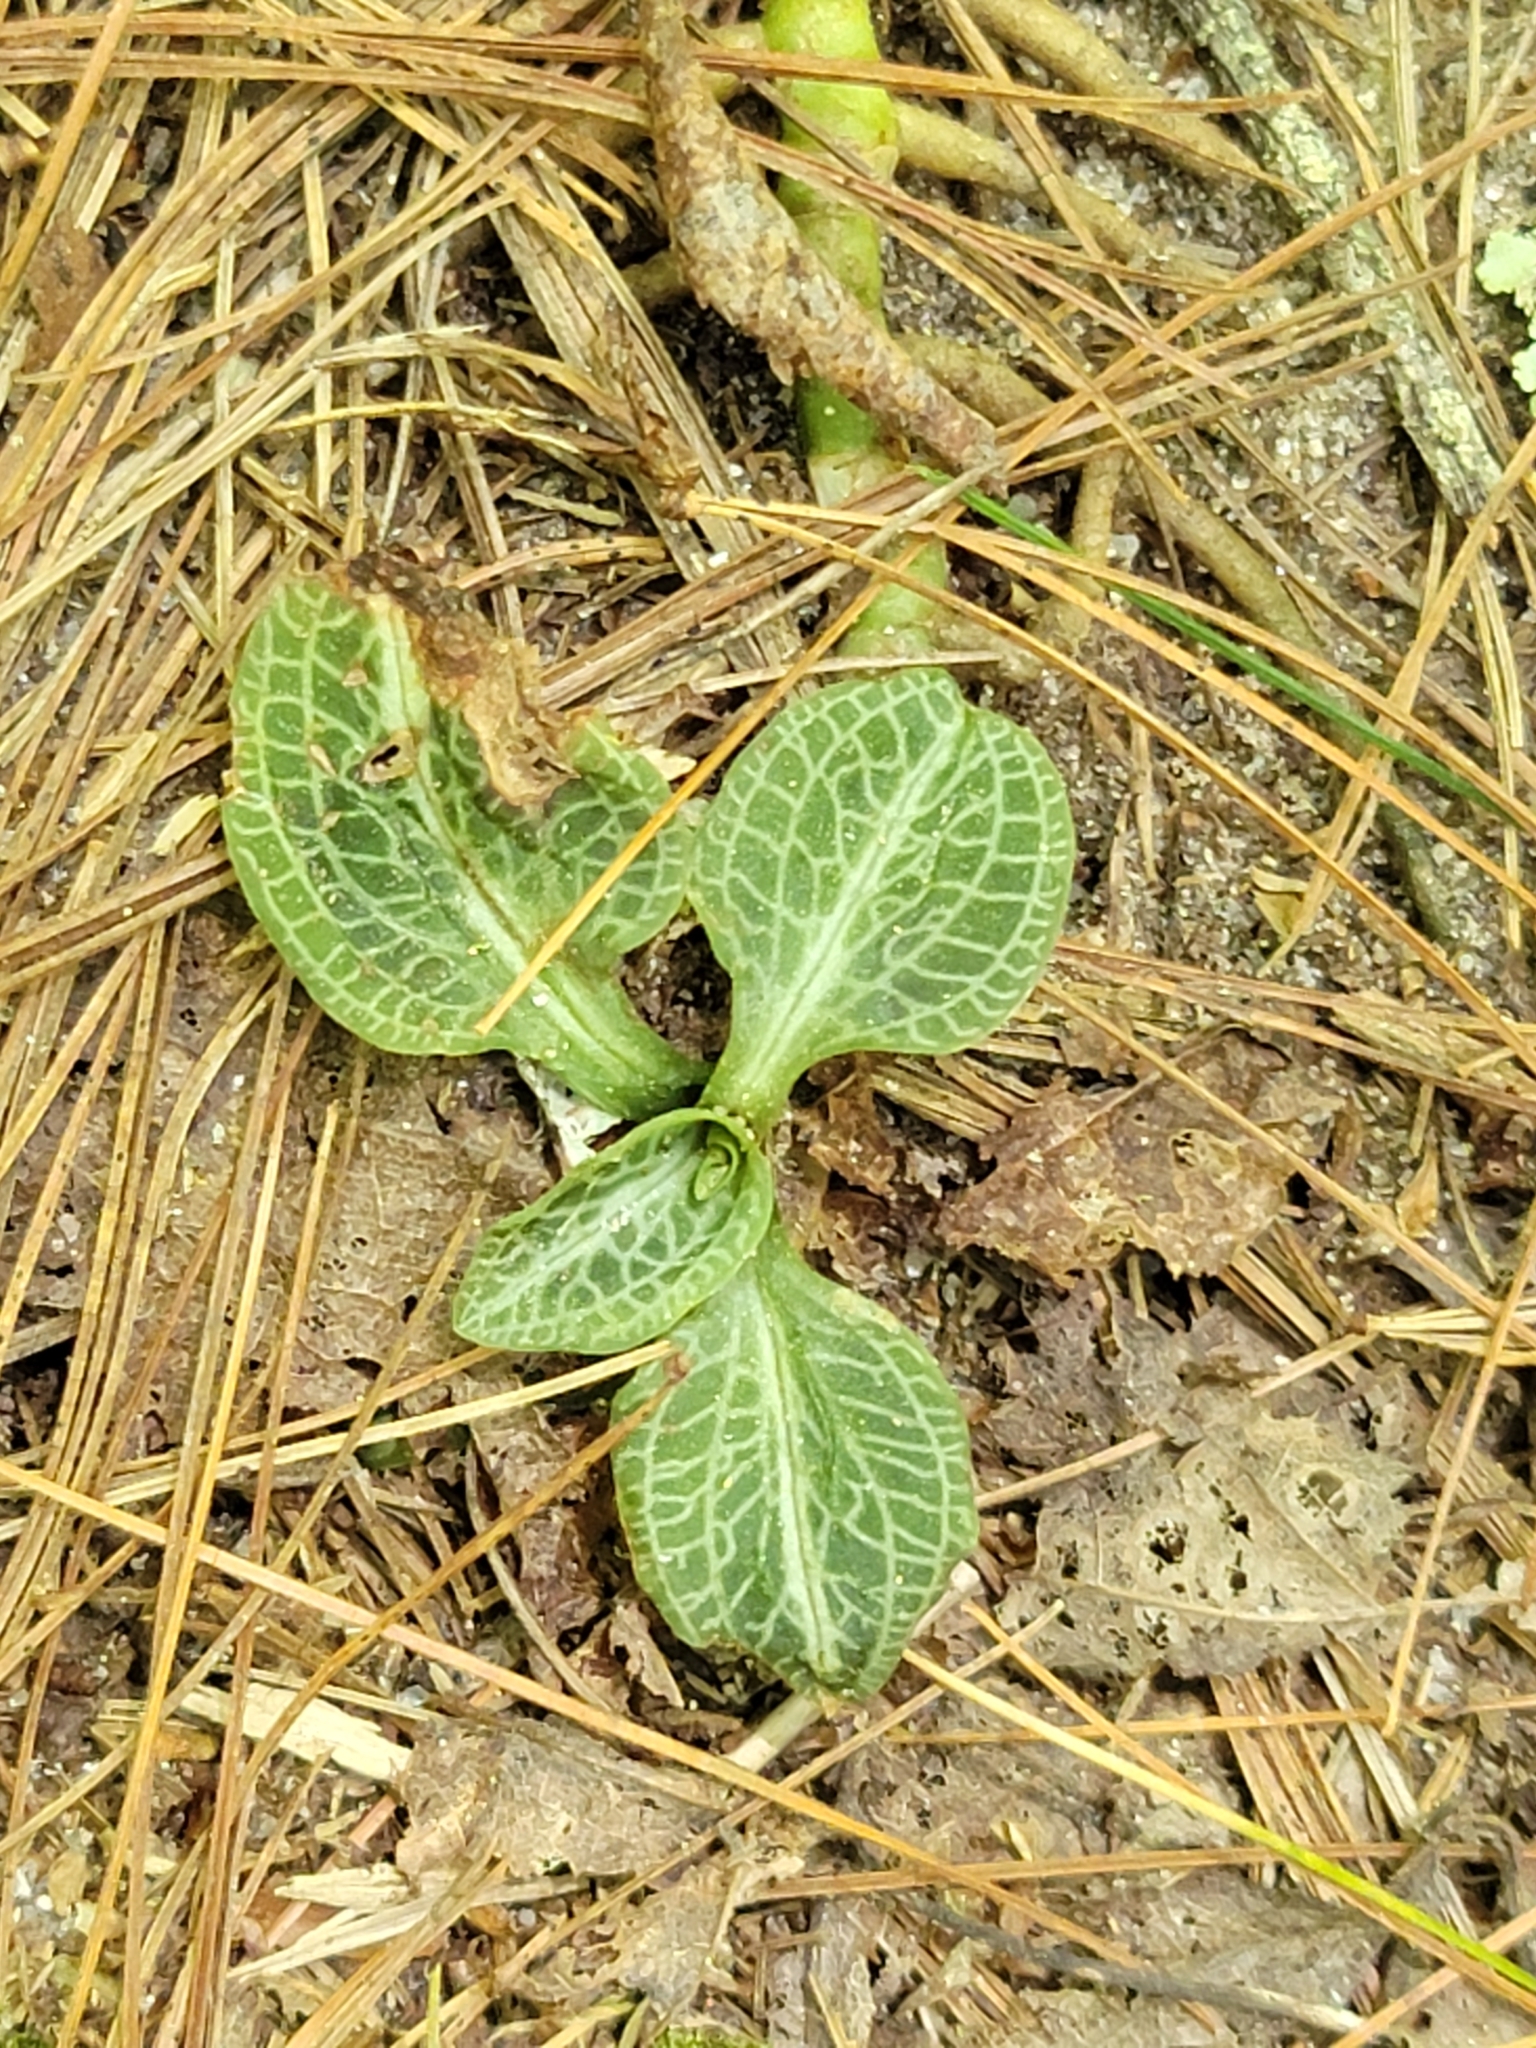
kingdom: Plantae
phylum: Tracheophyta
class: Liliopsida
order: Asparagales
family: Orchidaceae
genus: Goodyera
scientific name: Goodyera pubescens
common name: Downy rattlesnake-plantain
